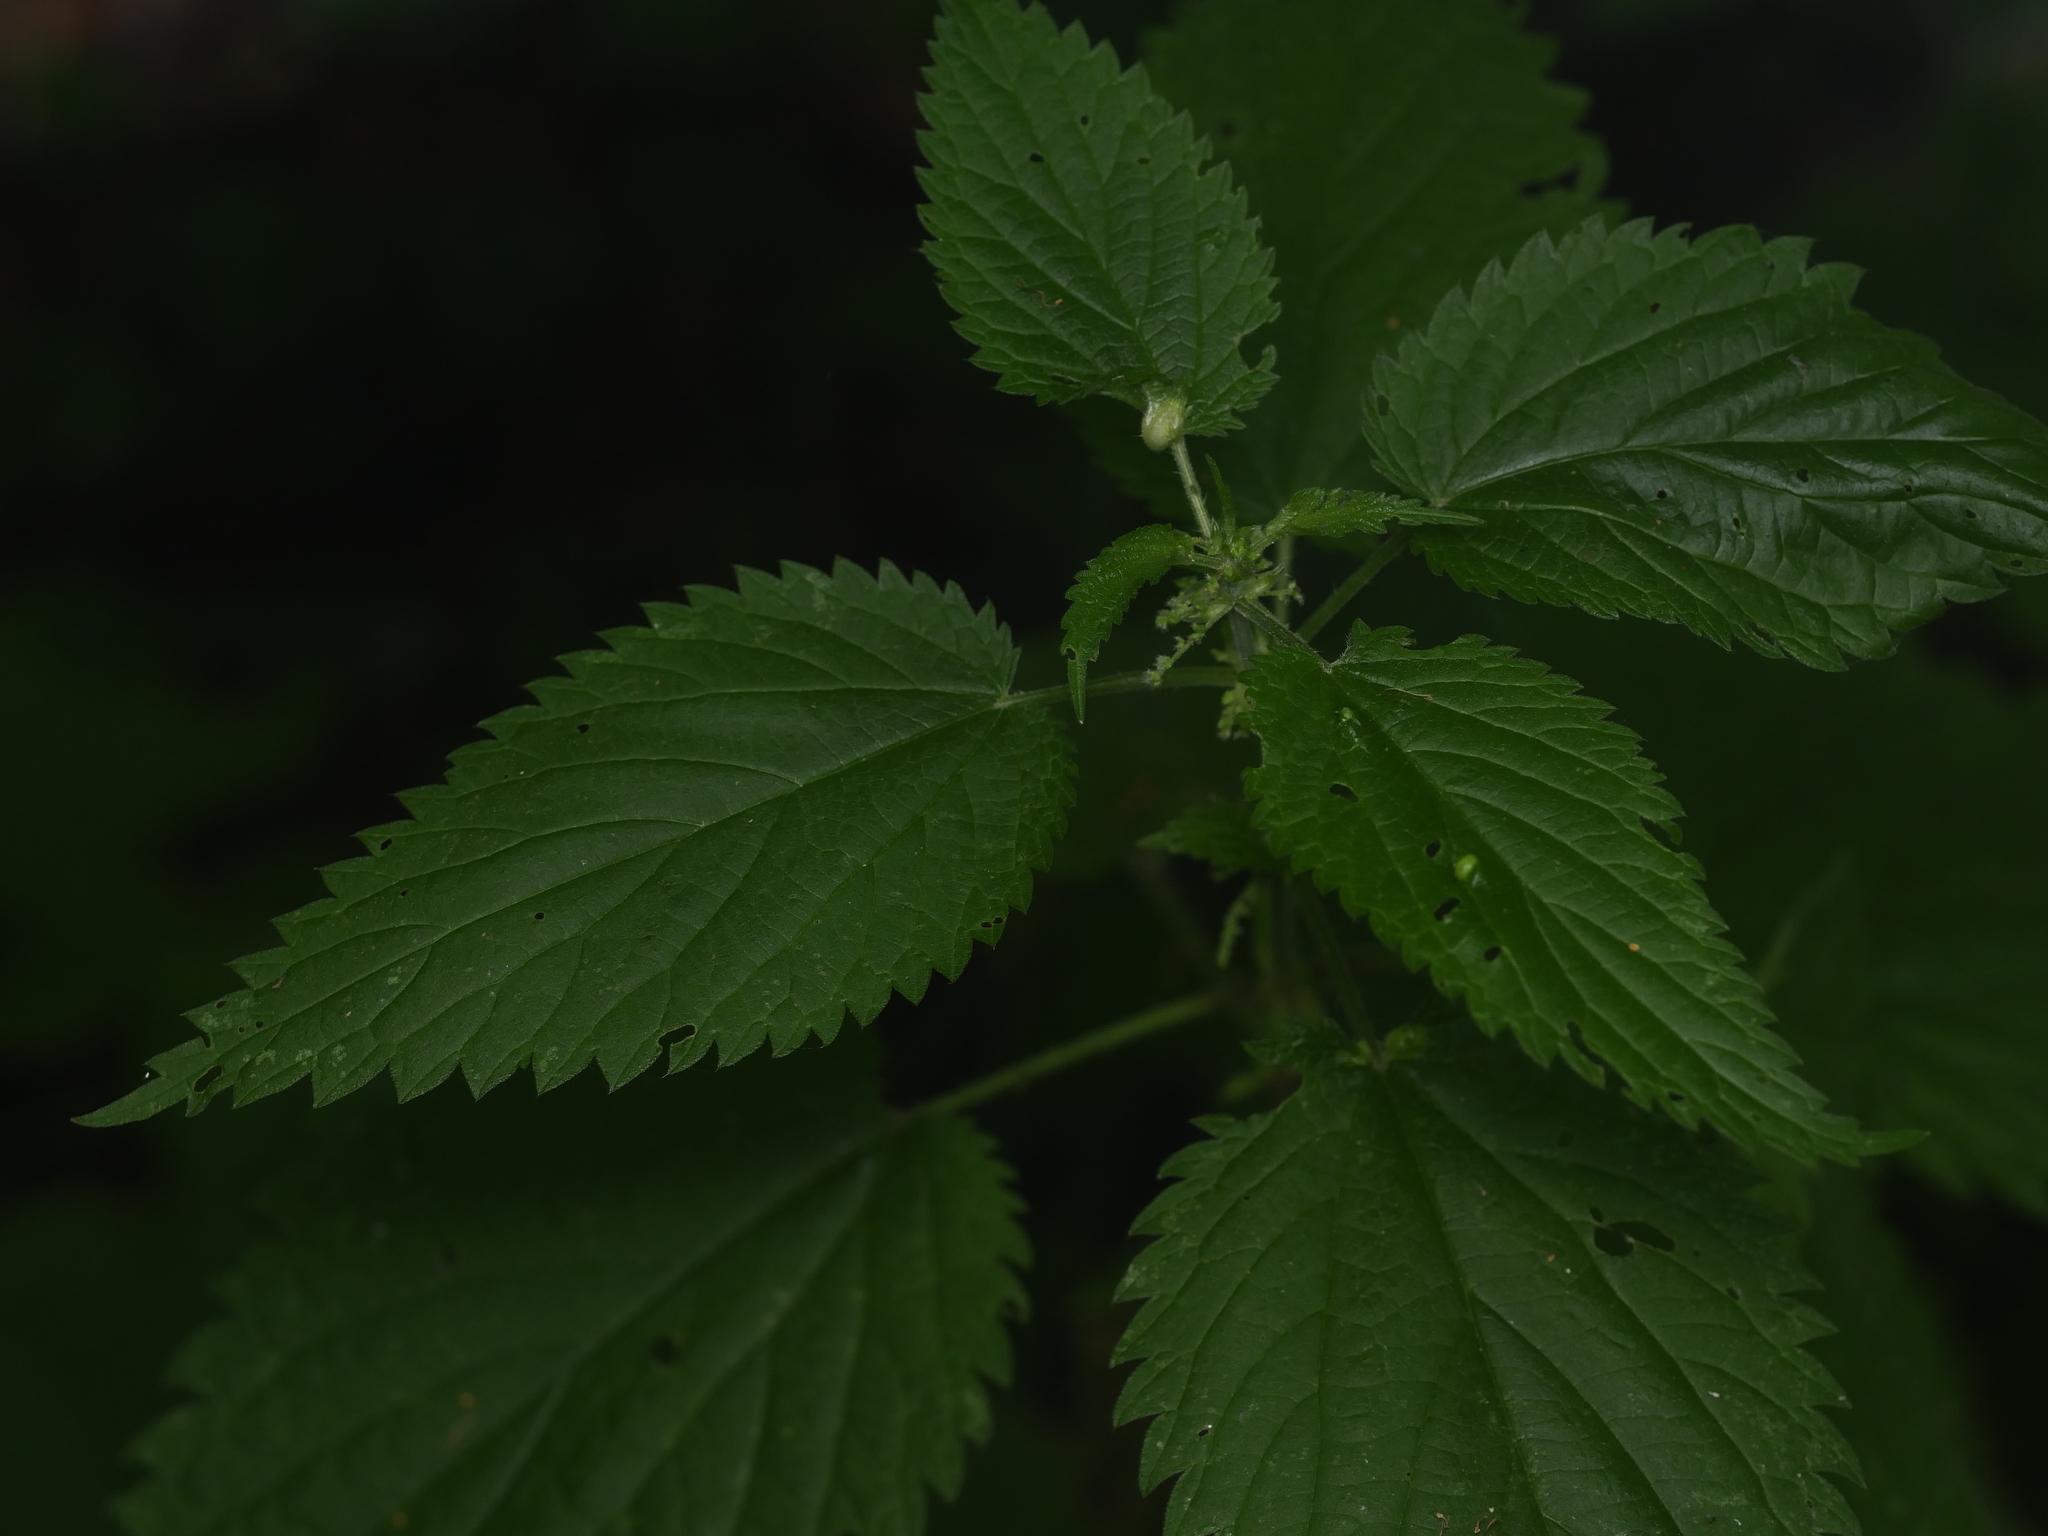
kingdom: Plantae
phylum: Tracheophyta
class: Magnoliopsida
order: Rosales
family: Urticaceae
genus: Urtica
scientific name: Urtica dioica
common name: Common nettle
